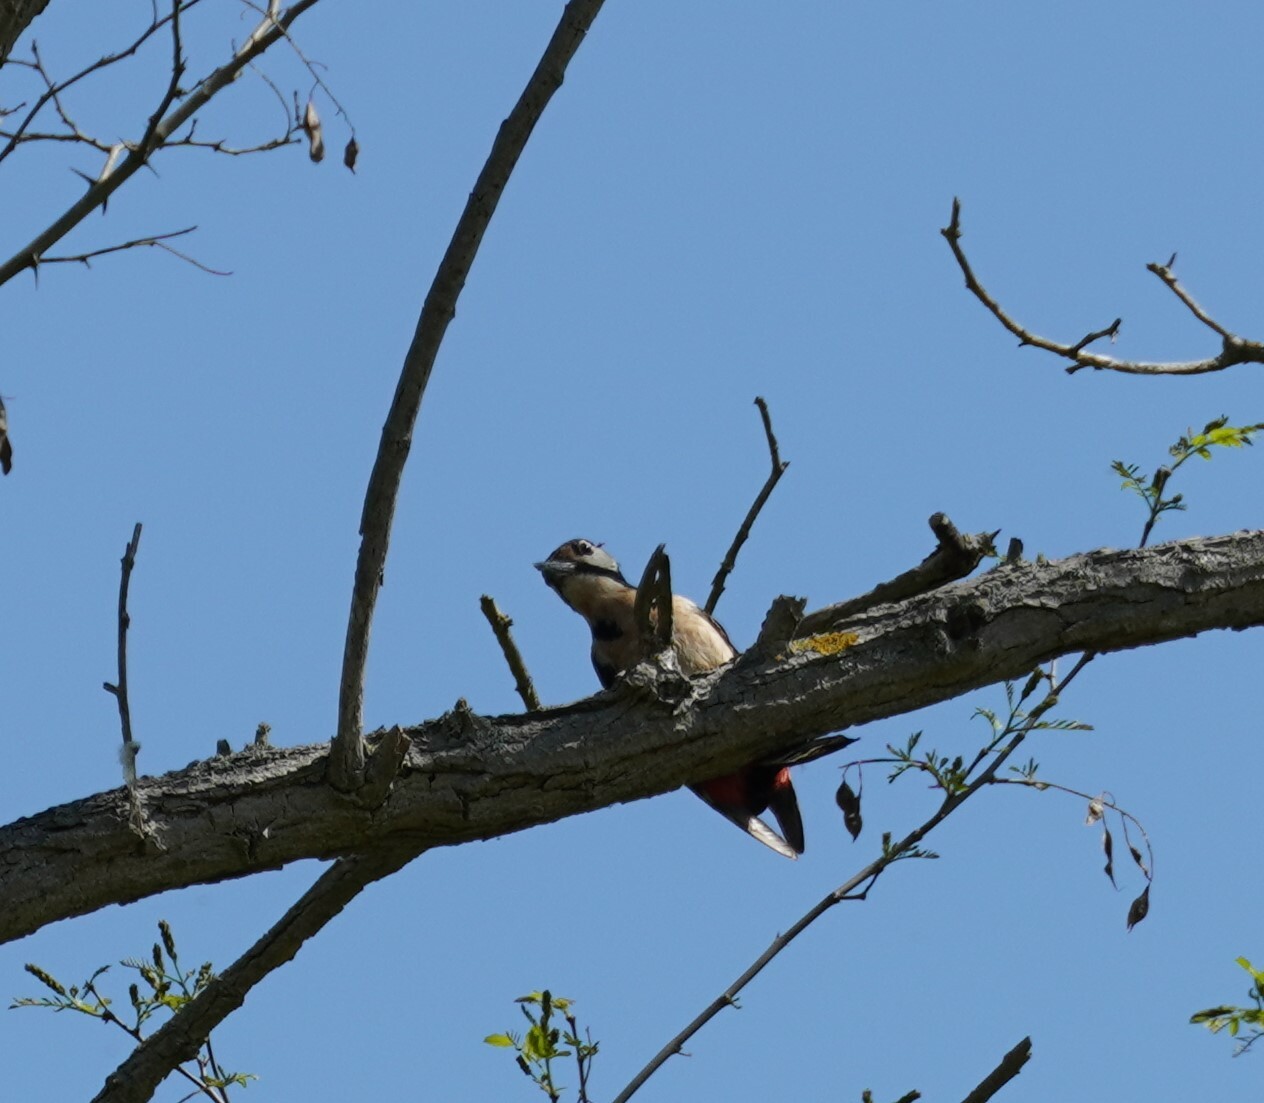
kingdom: Animalia
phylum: Chordata
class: Aves
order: Piciformes
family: Picidae
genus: Dendrocopos
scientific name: Dendrocopos major
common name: Great spotted woodpecker
